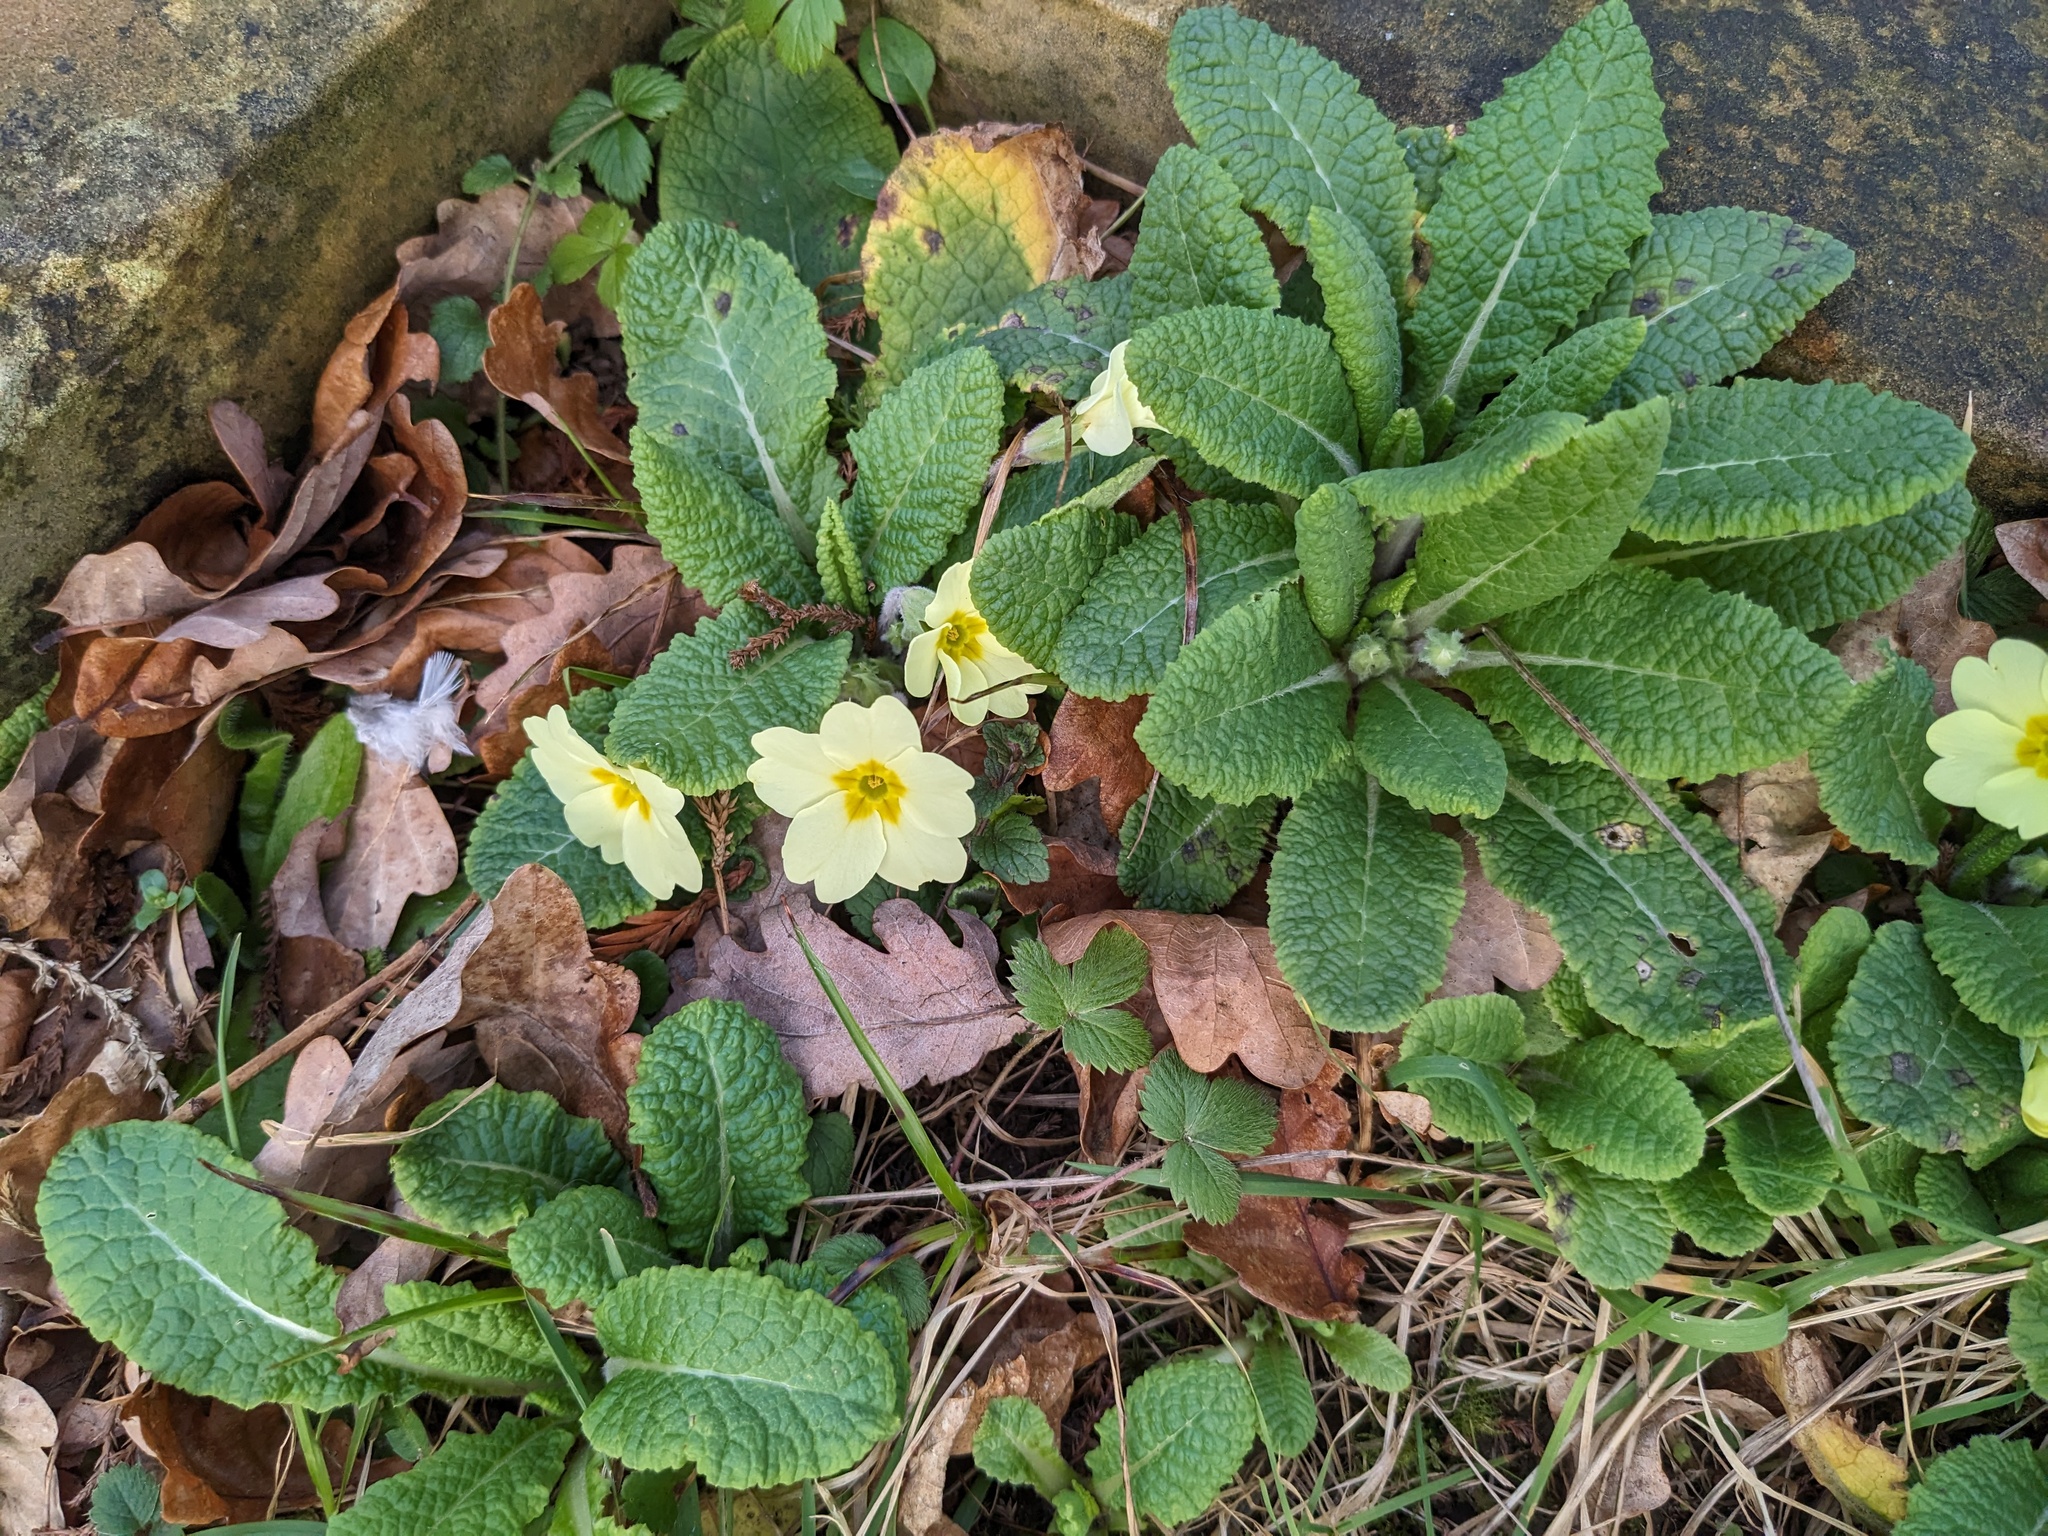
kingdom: Plantae
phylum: Tracheophyta
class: Magnoliopsida
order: Ericales
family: Primulaceae
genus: Primula
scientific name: Primula vulgaris
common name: Primrose
